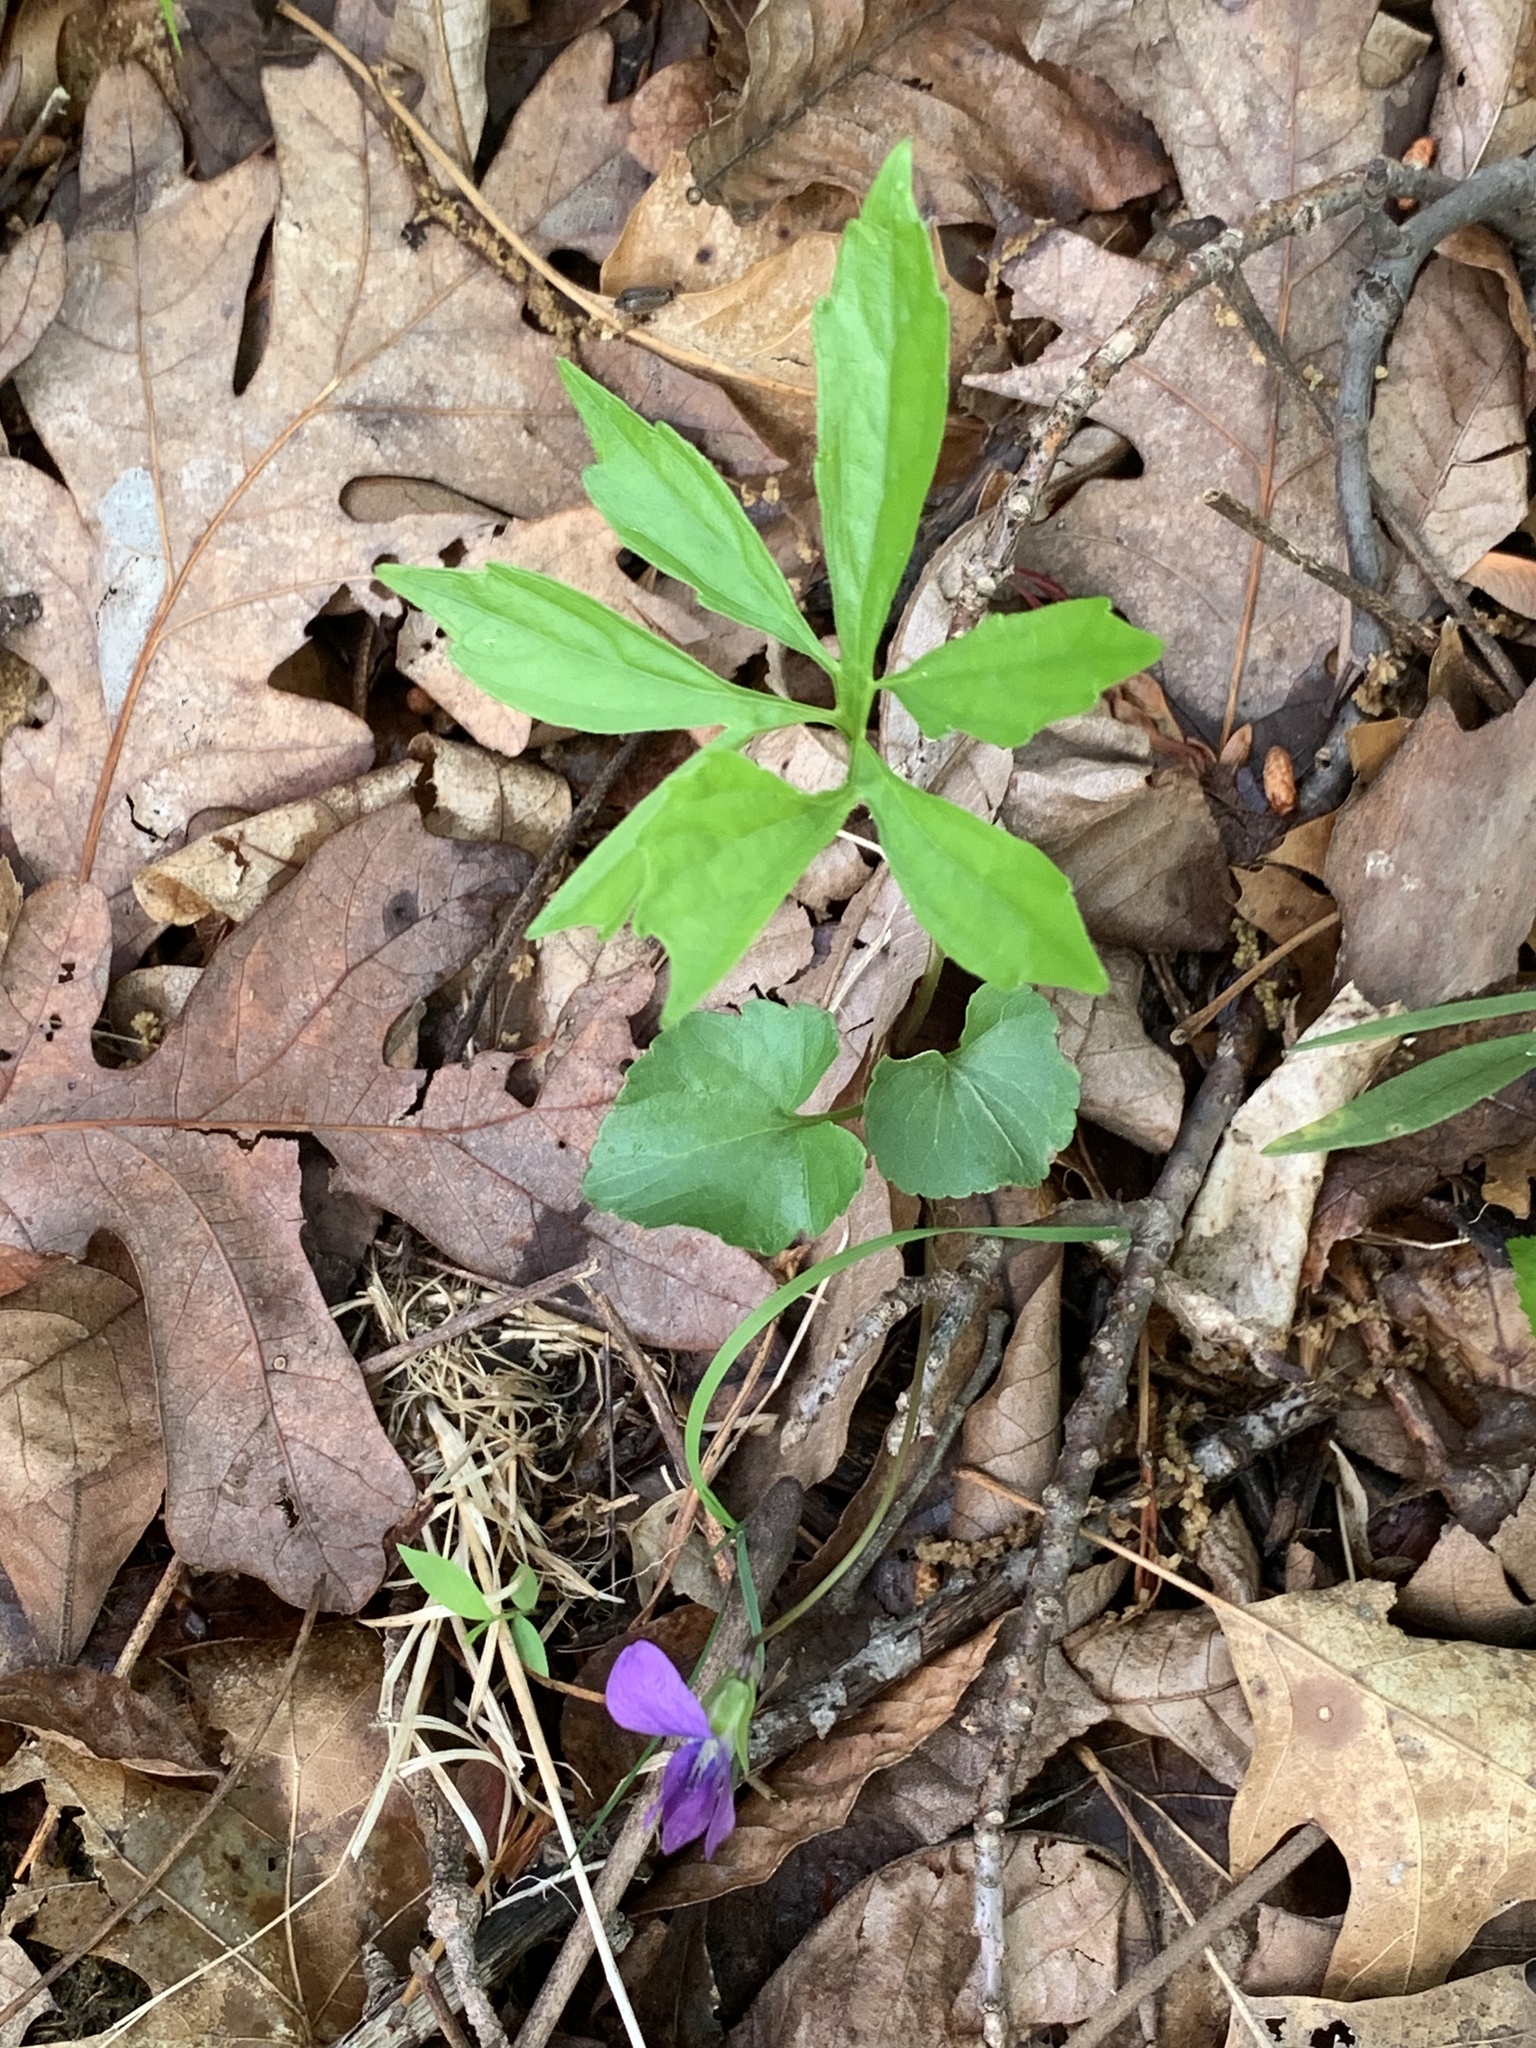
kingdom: Plantae
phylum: Tracheophyta
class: Magnoliopsida
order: Malpighiales
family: Violaceae
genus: Viola
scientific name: Viola palmata
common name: Early blue violet
